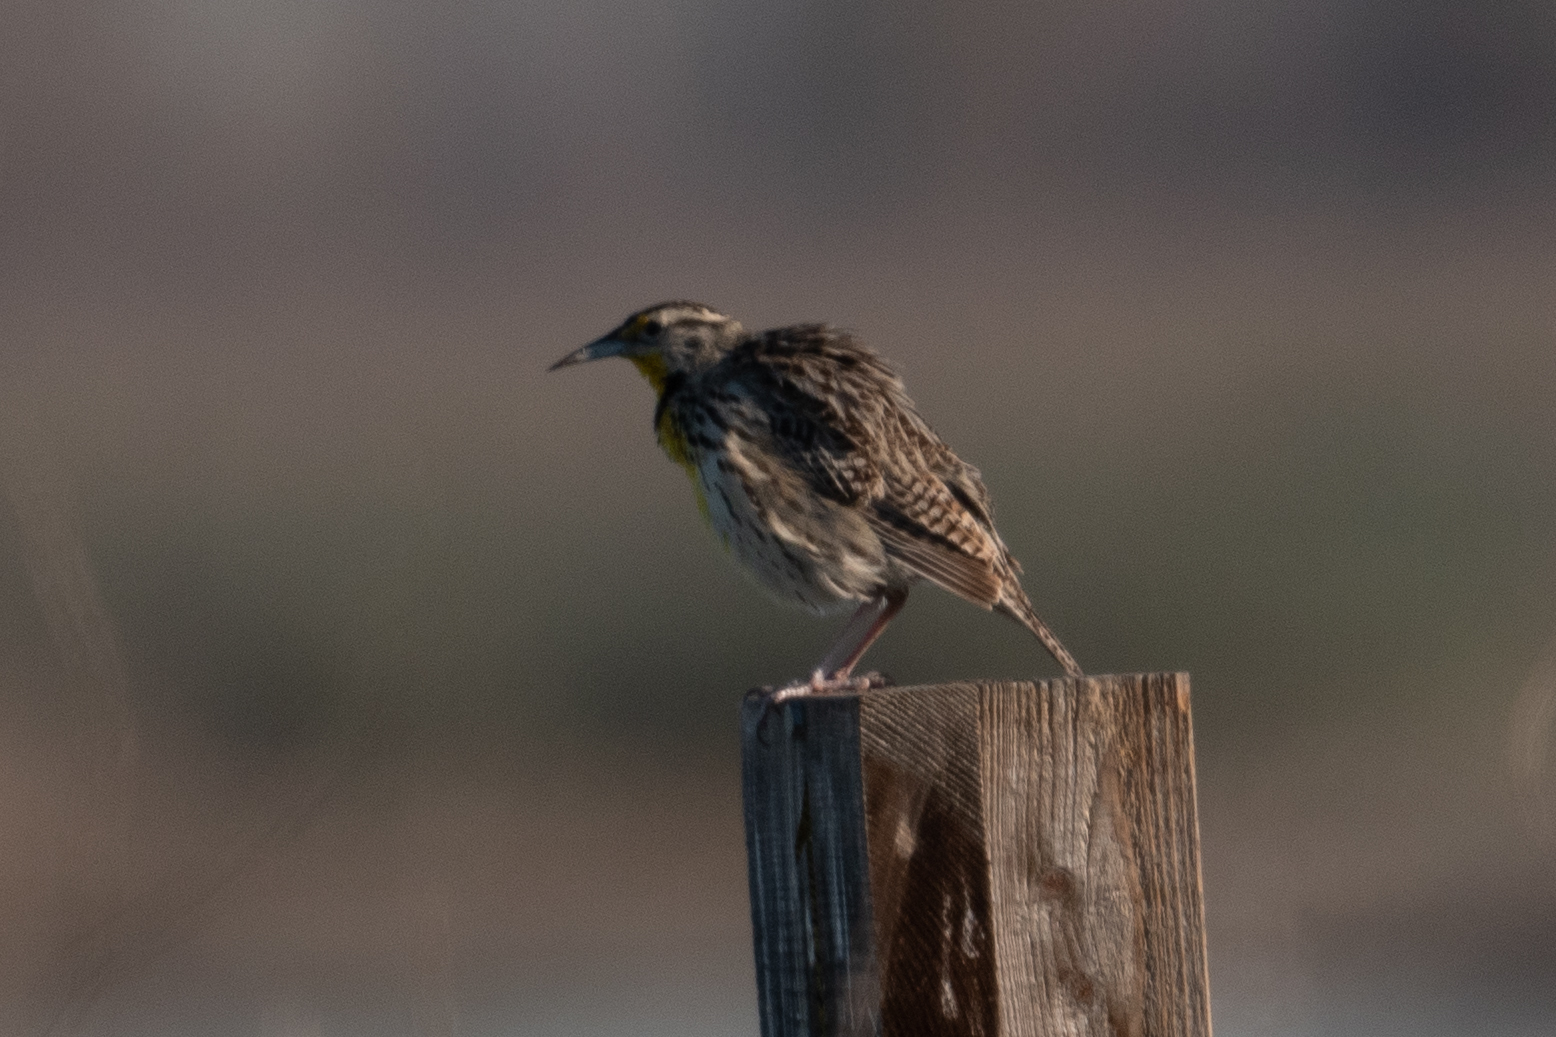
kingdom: Animalia
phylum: Chordata
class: Aves
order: Passeriformes
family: Icteridae
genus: Sturnella
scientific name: Sturnella neglecta
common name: Western meadowlark
